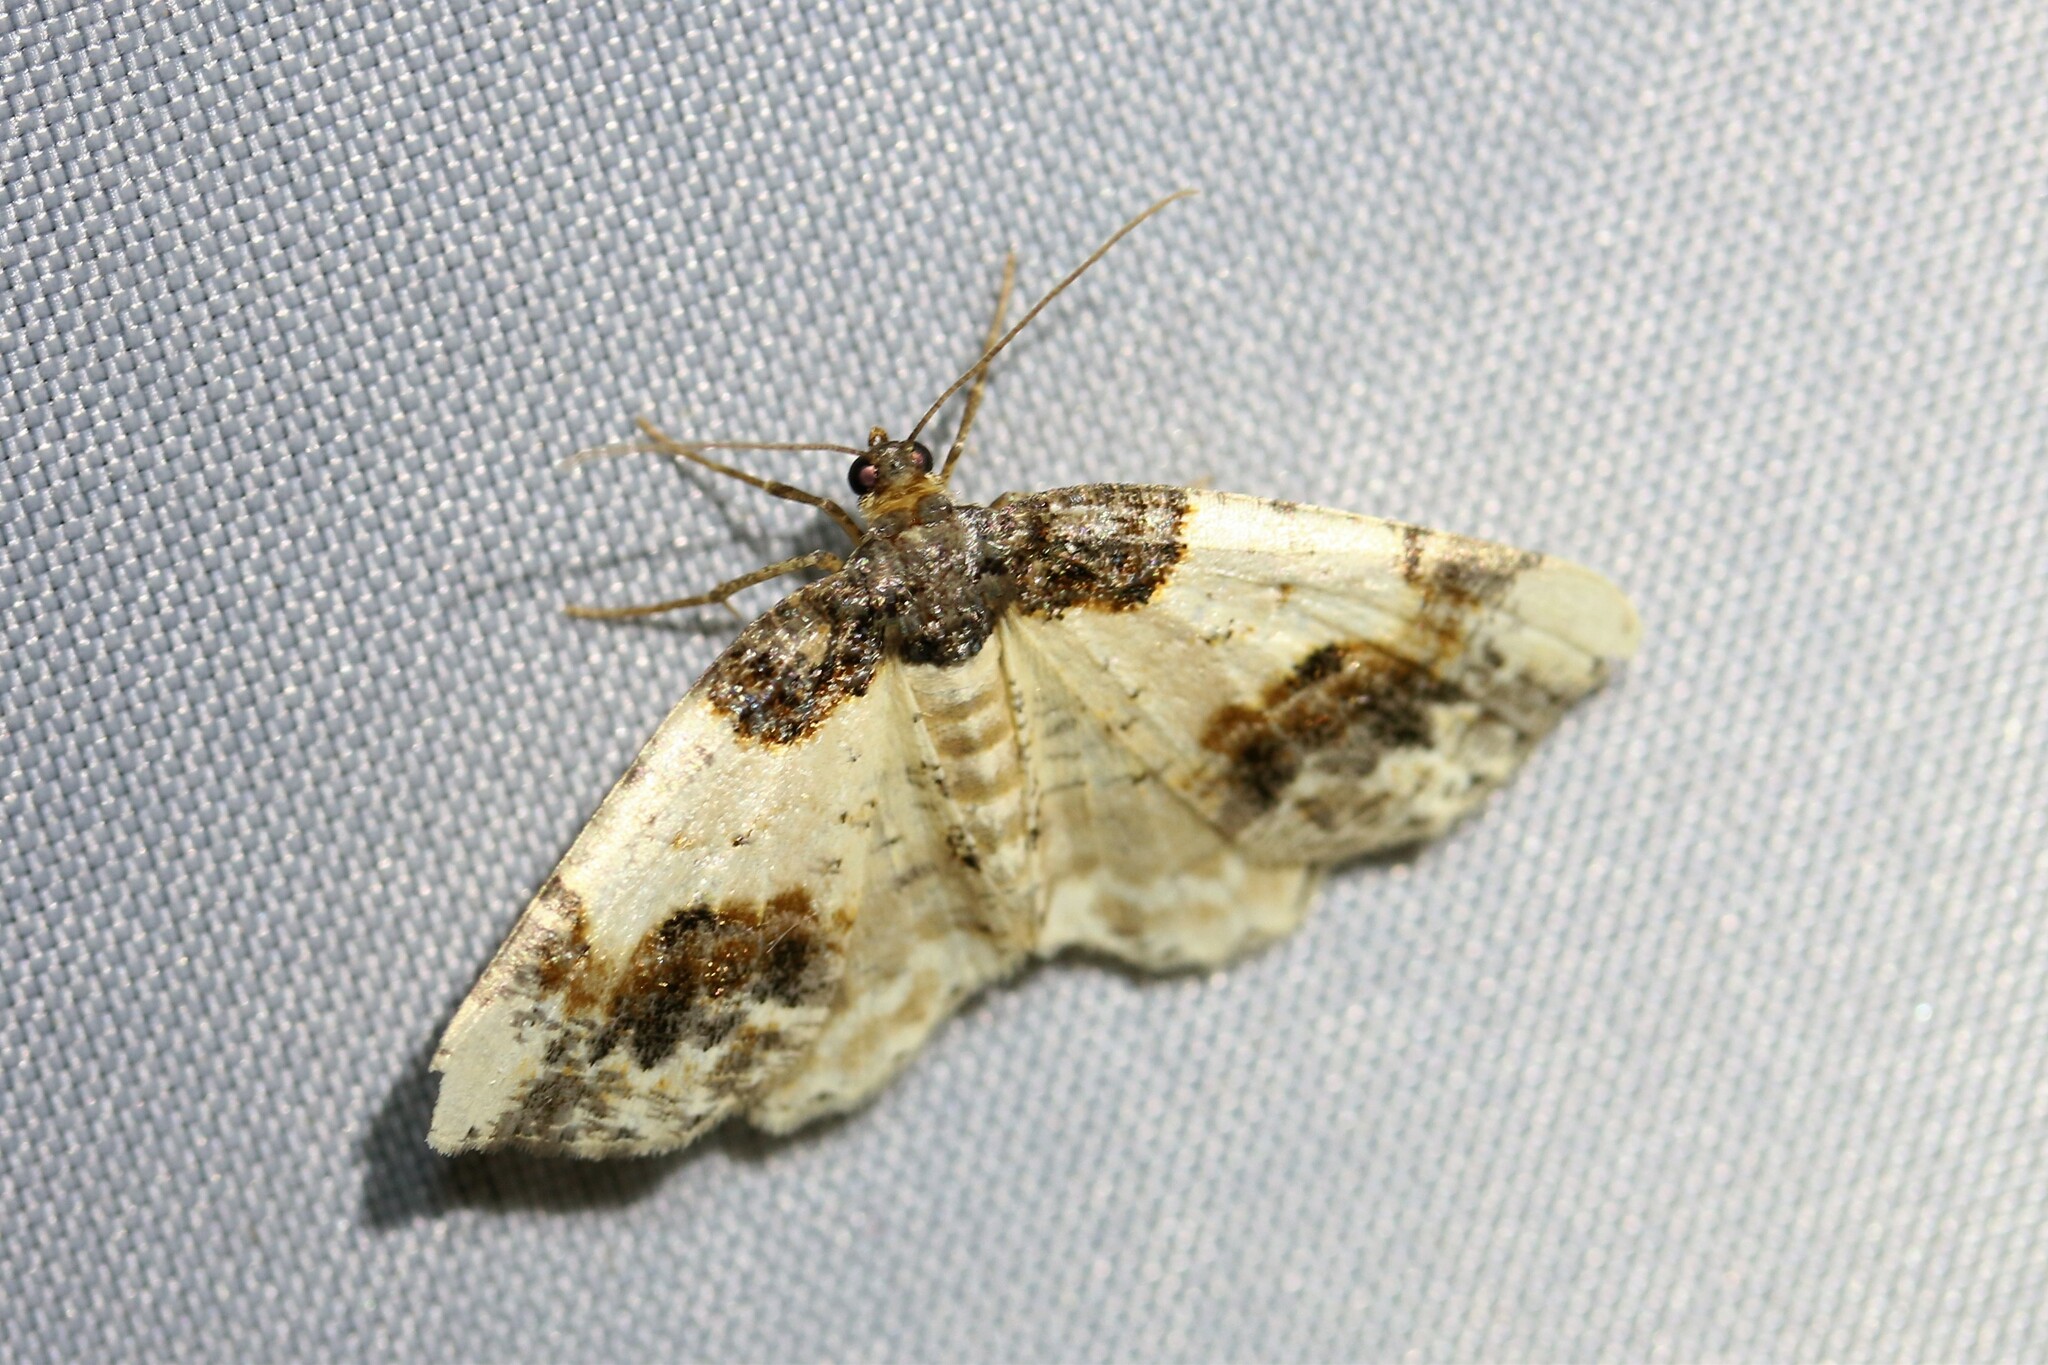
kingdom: Animalia
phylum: Arthropoda
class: Insecta
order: Lepidoptera
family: Geometridae
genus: Ligdia
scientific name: Ligdia adustata
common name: Scorched carpet
